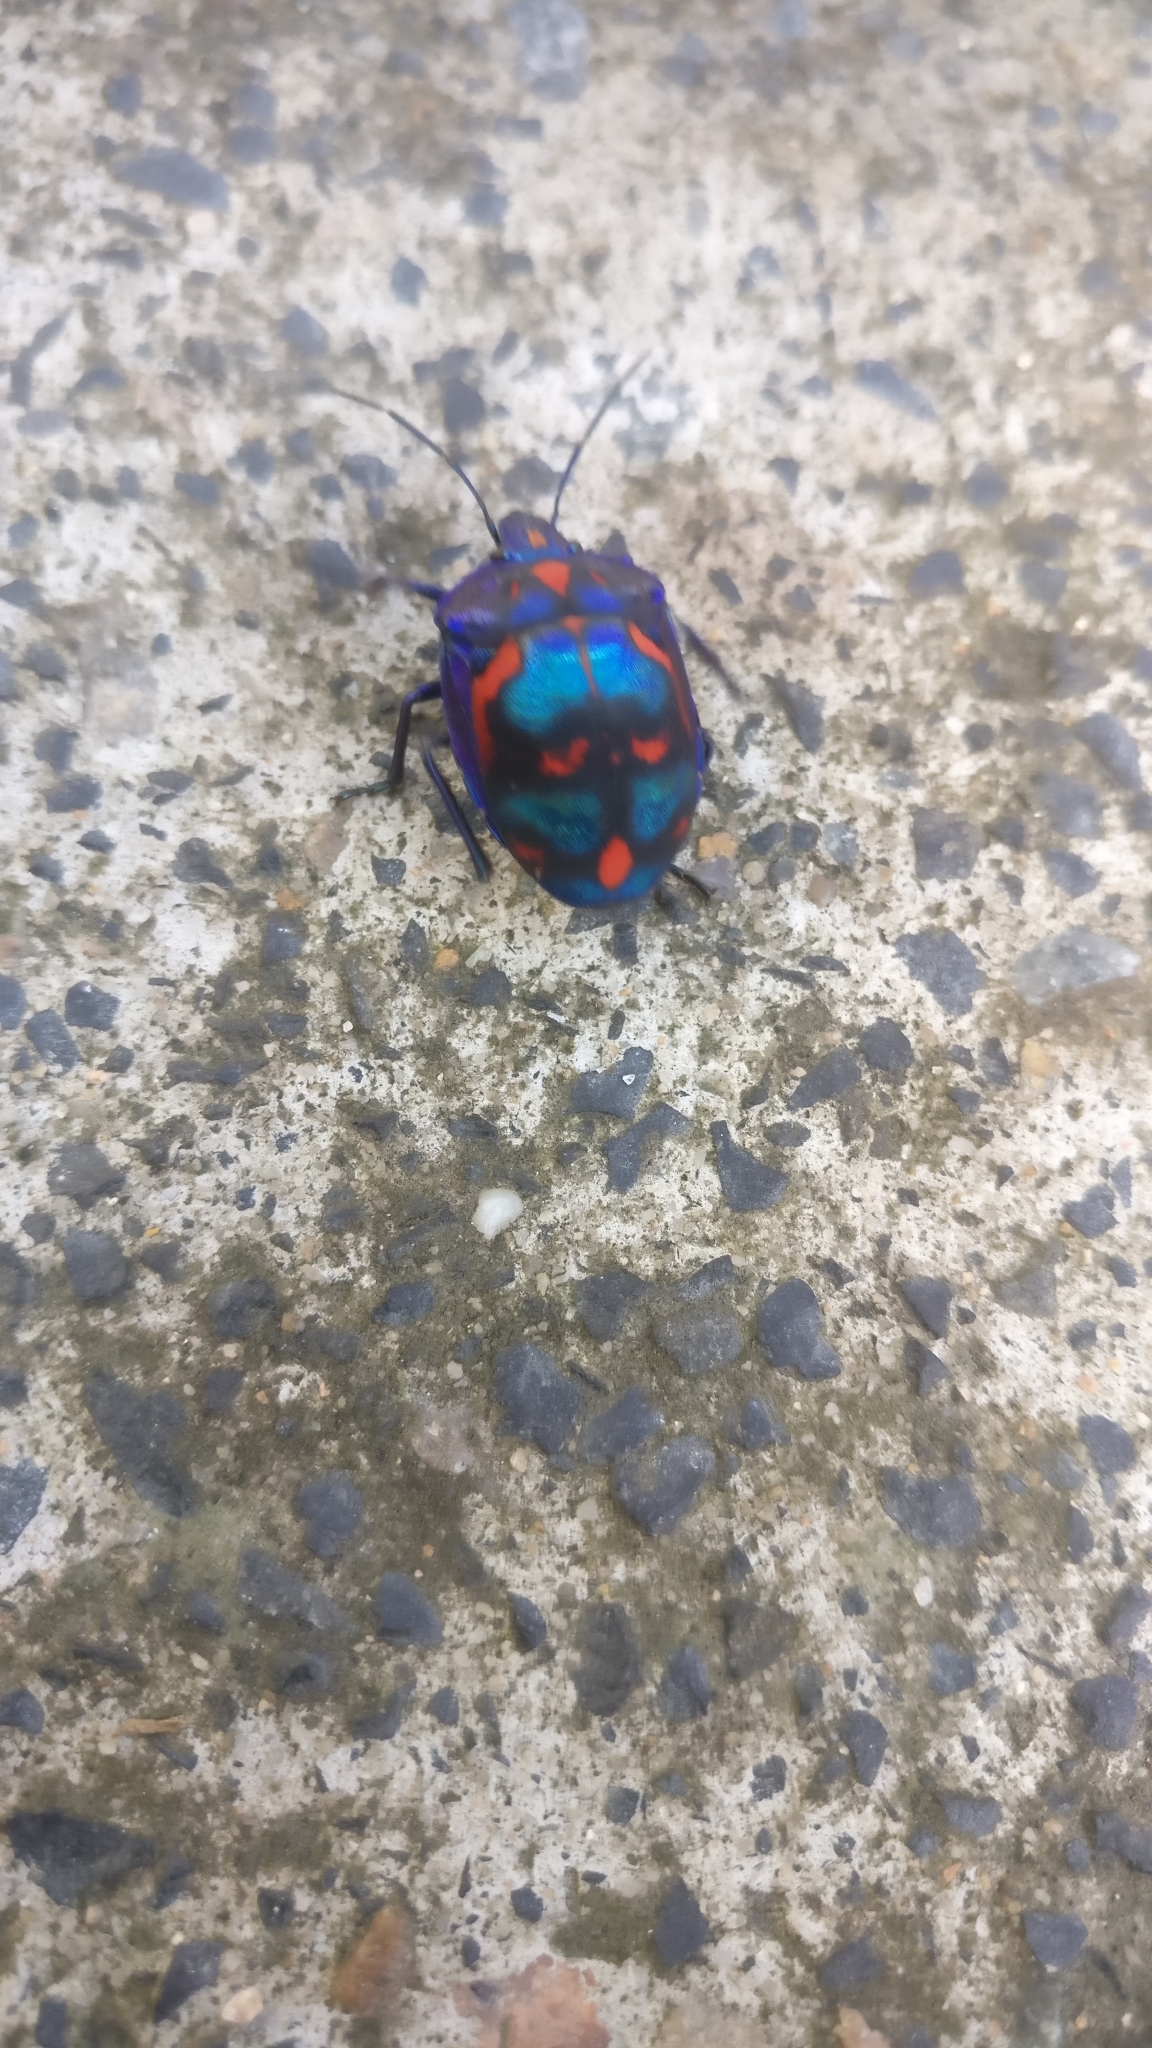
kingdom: Animalia
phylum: Arthropoda
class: Insecta
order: Hemiptera
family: Scutelleridae
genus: Tectocoris
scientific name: Tectocoris diophthalmus
